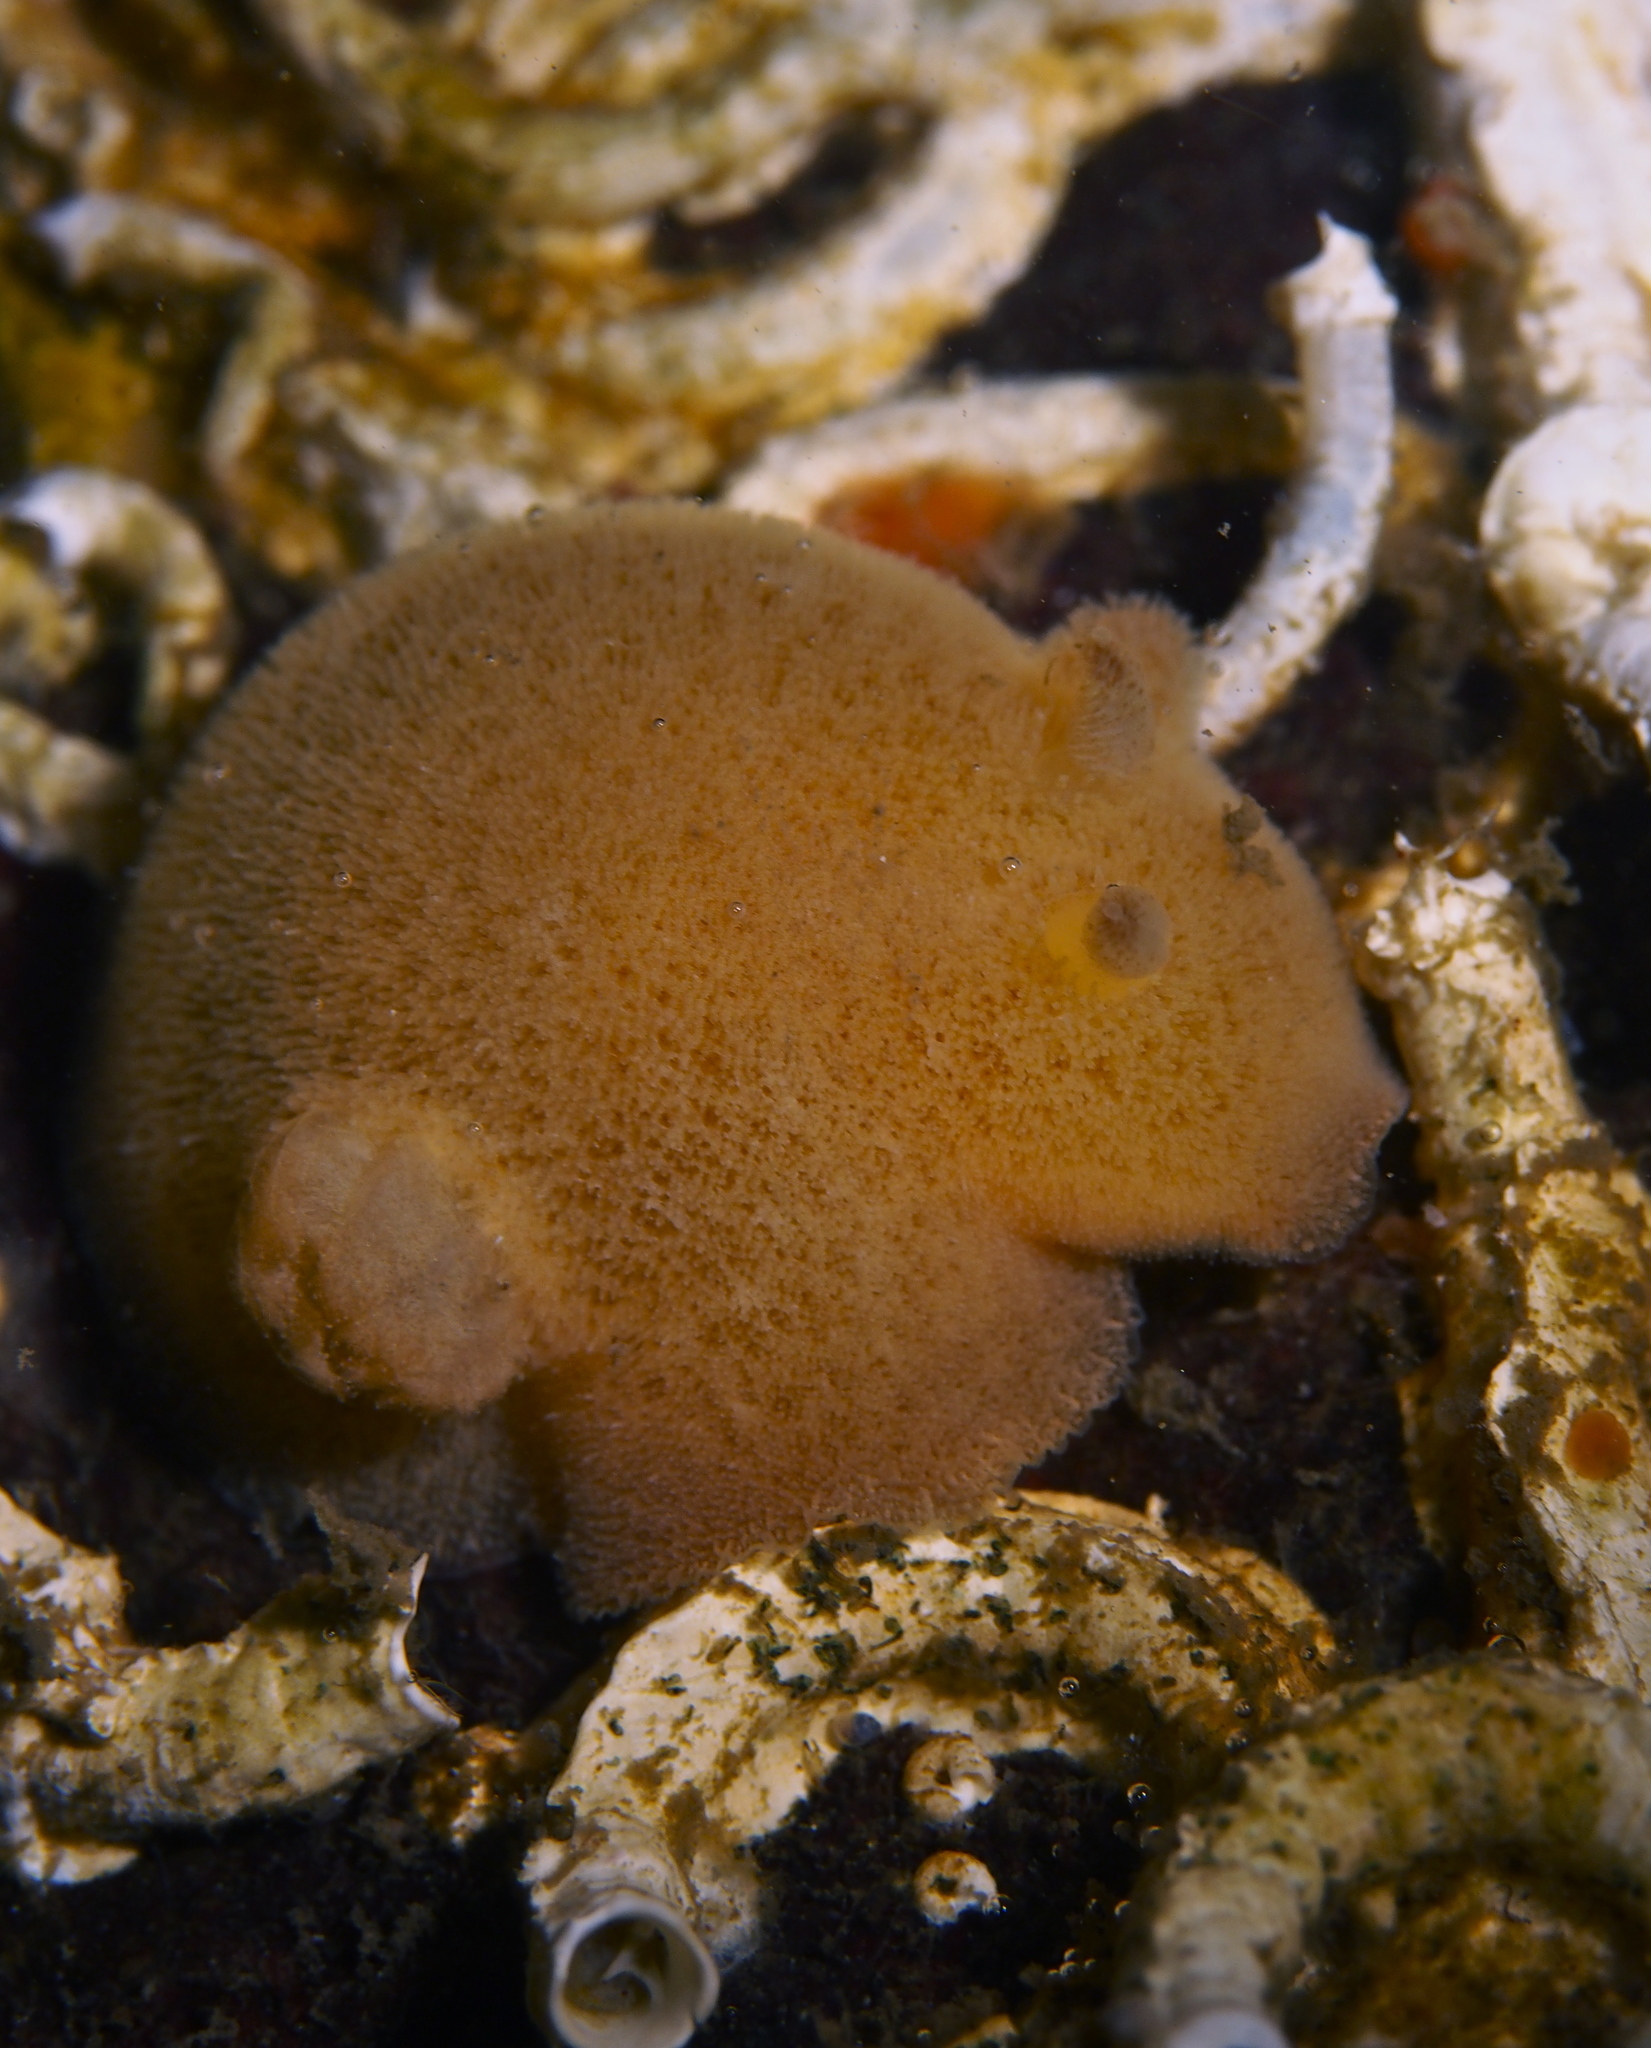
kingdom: Animalia
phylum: Mollusca
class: Gastropoda
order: Nudibranchia
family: Discodorididae
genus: Jorunna
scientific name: Jorunna tomentosa
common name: Grey sea slug
